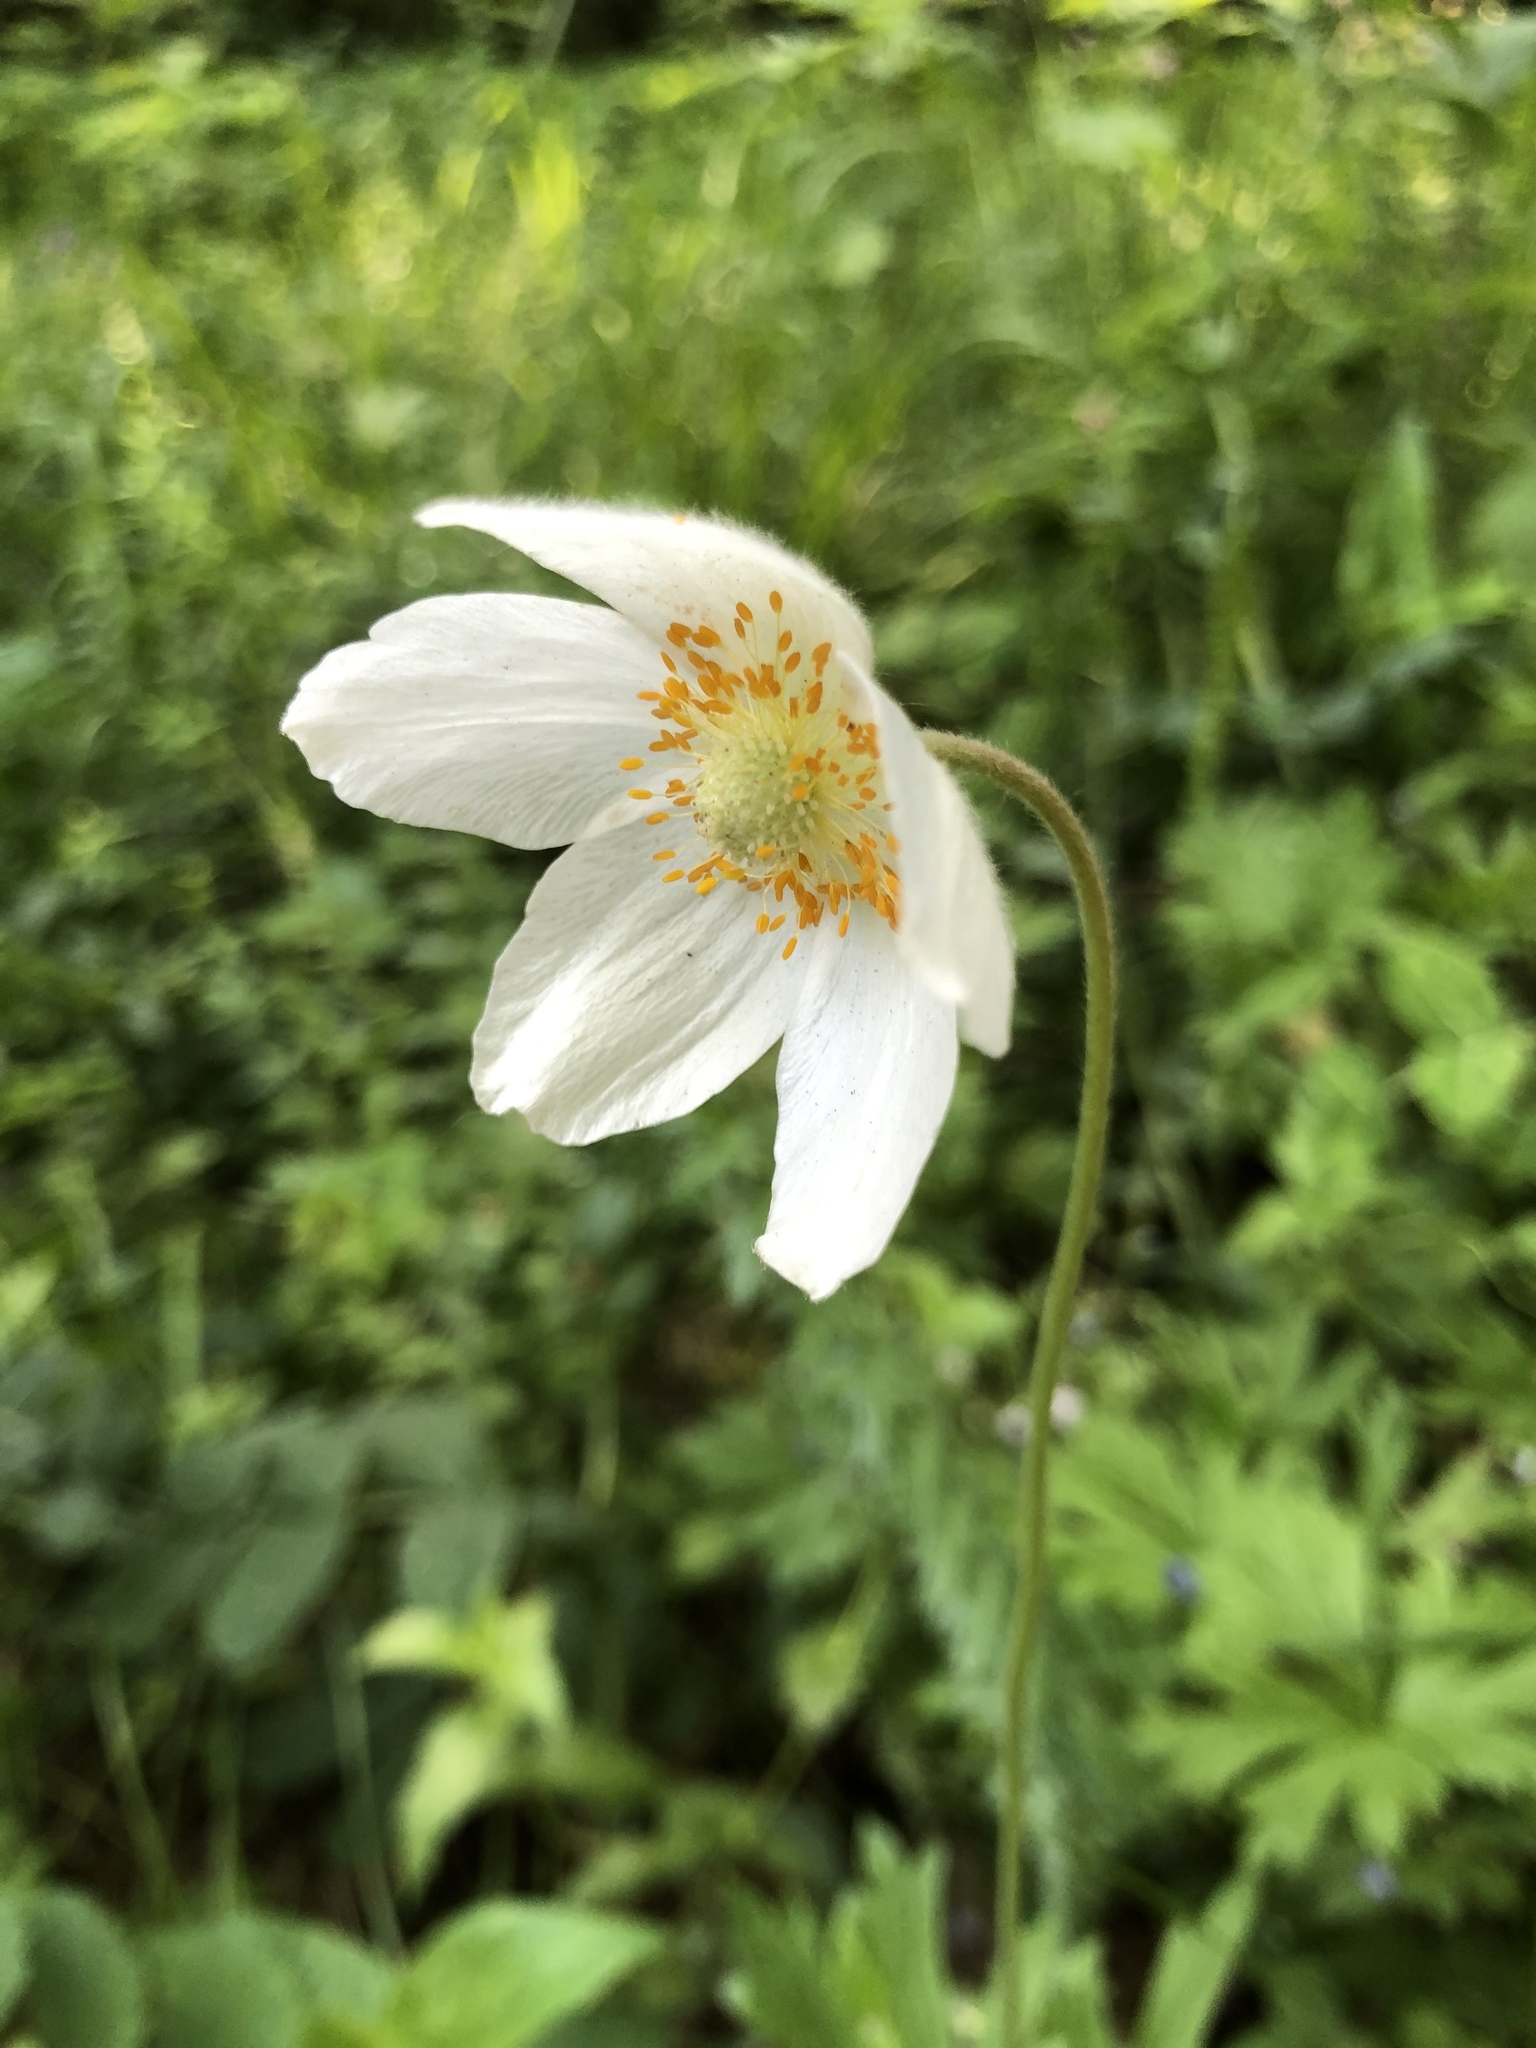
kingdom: Plantae
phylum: Tracheophyta
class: Magnoliopsida
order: Ranunculales
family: Ranunculaceae
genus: Anemone
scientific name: Anemone sylvestris
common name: Snowdrop anemone
